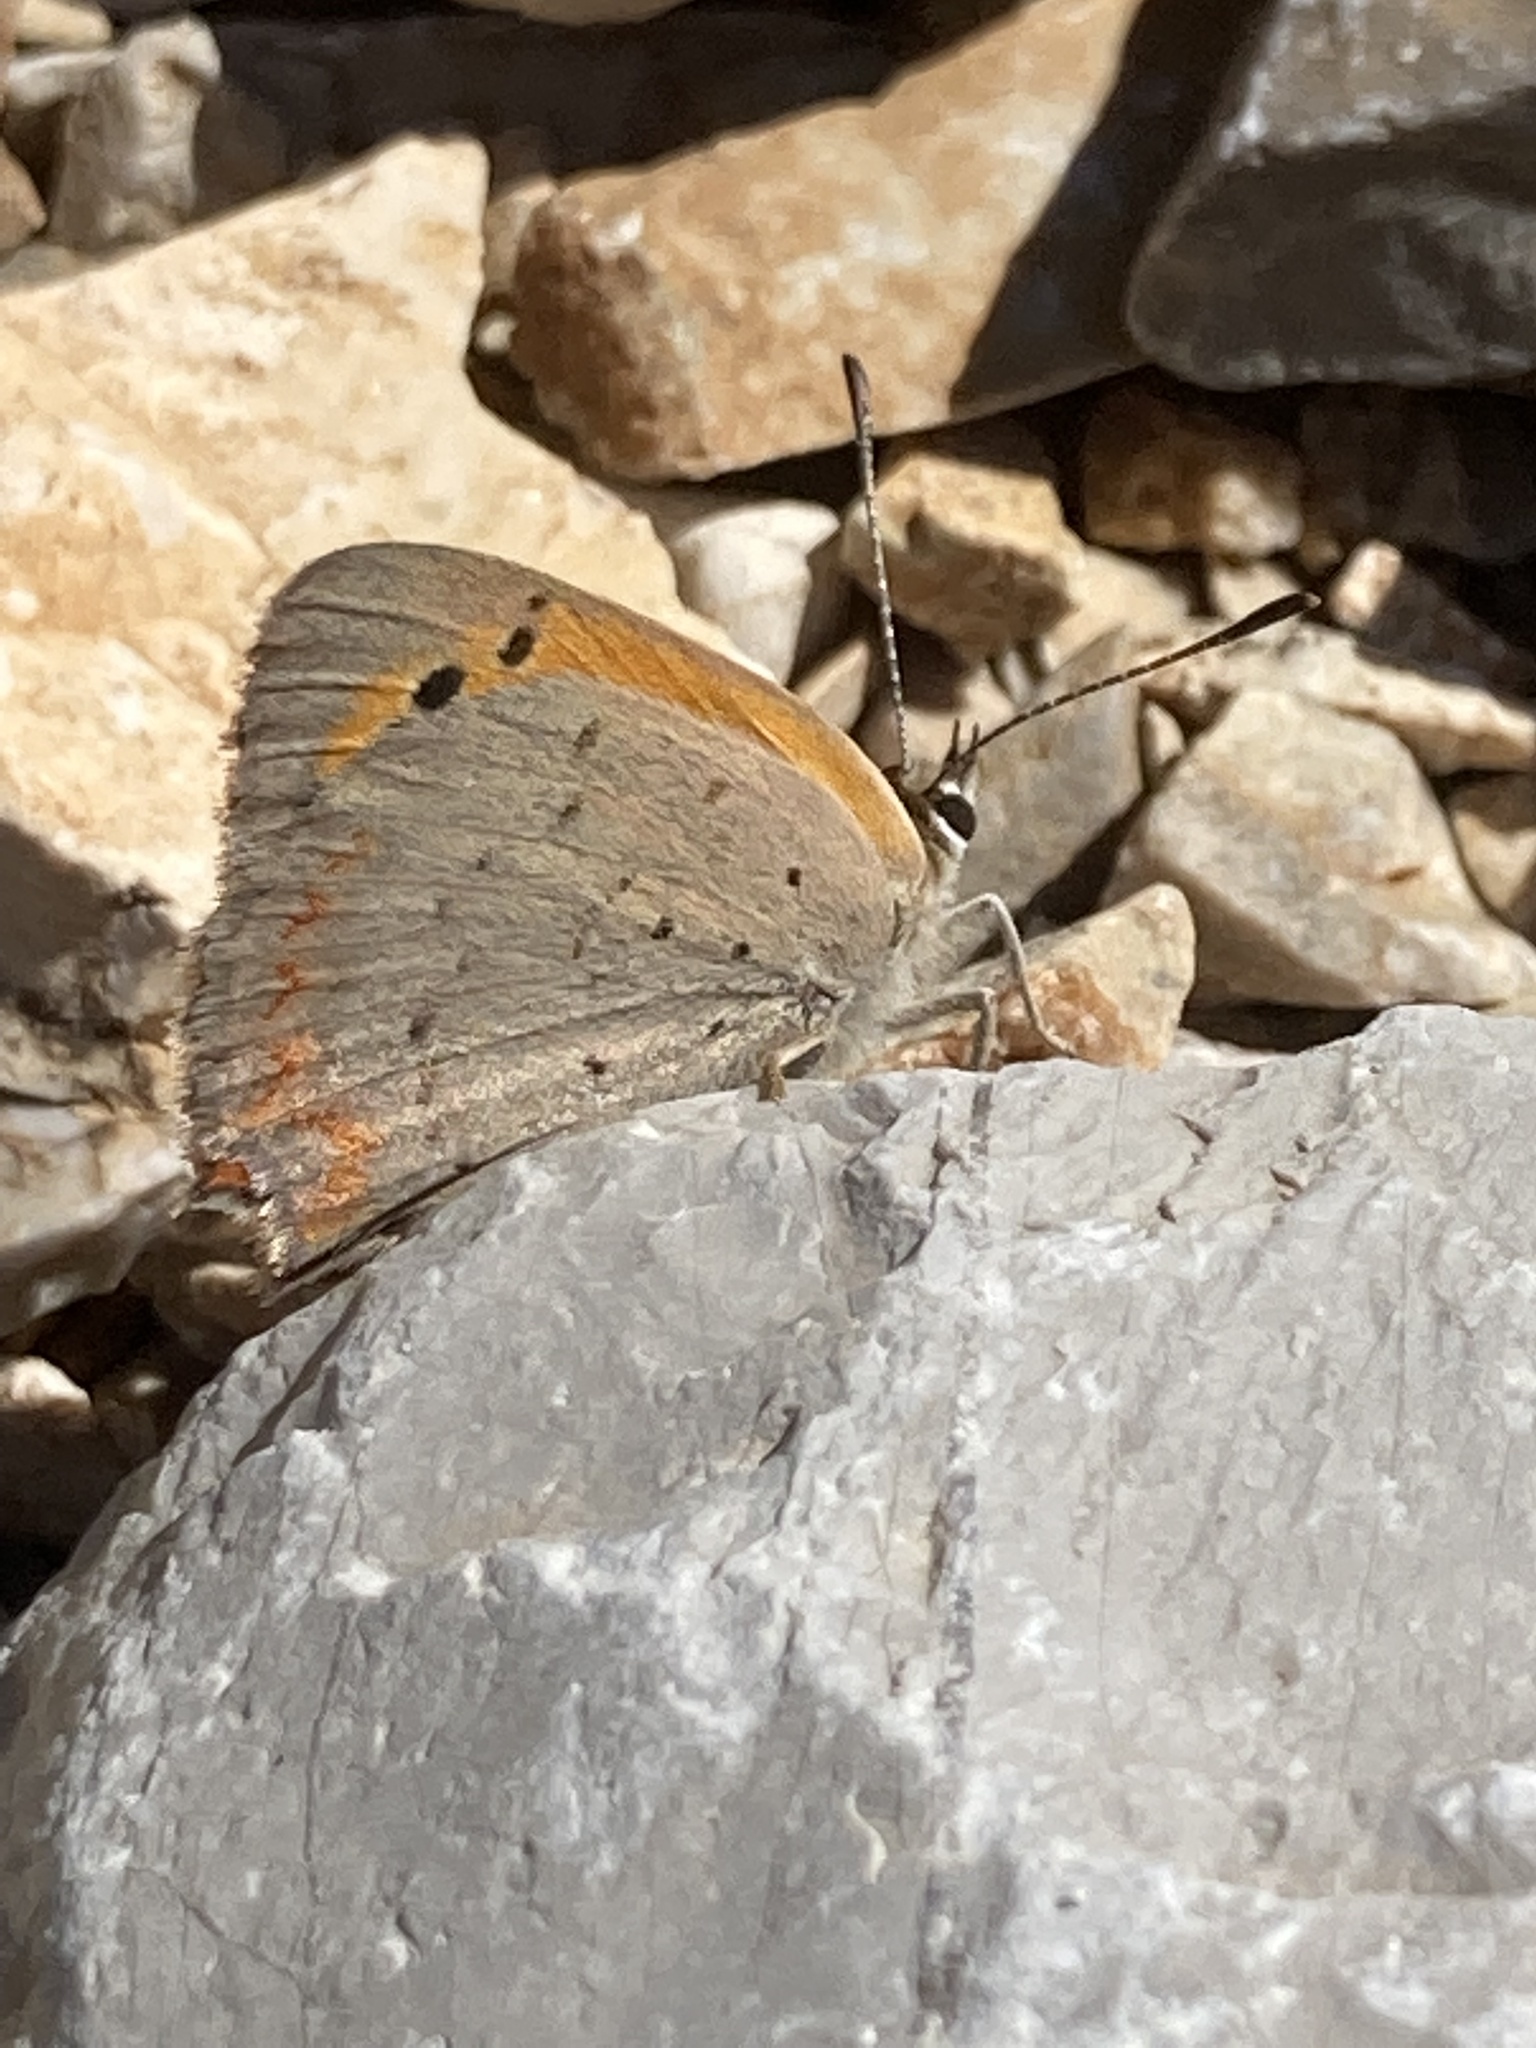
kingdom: Animalia
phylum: Arthropoda
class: Insecta
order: Lepidoptera
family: Lycaenidae
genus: Lycaena
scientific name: Lycaena phlaeas
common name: Small copper
